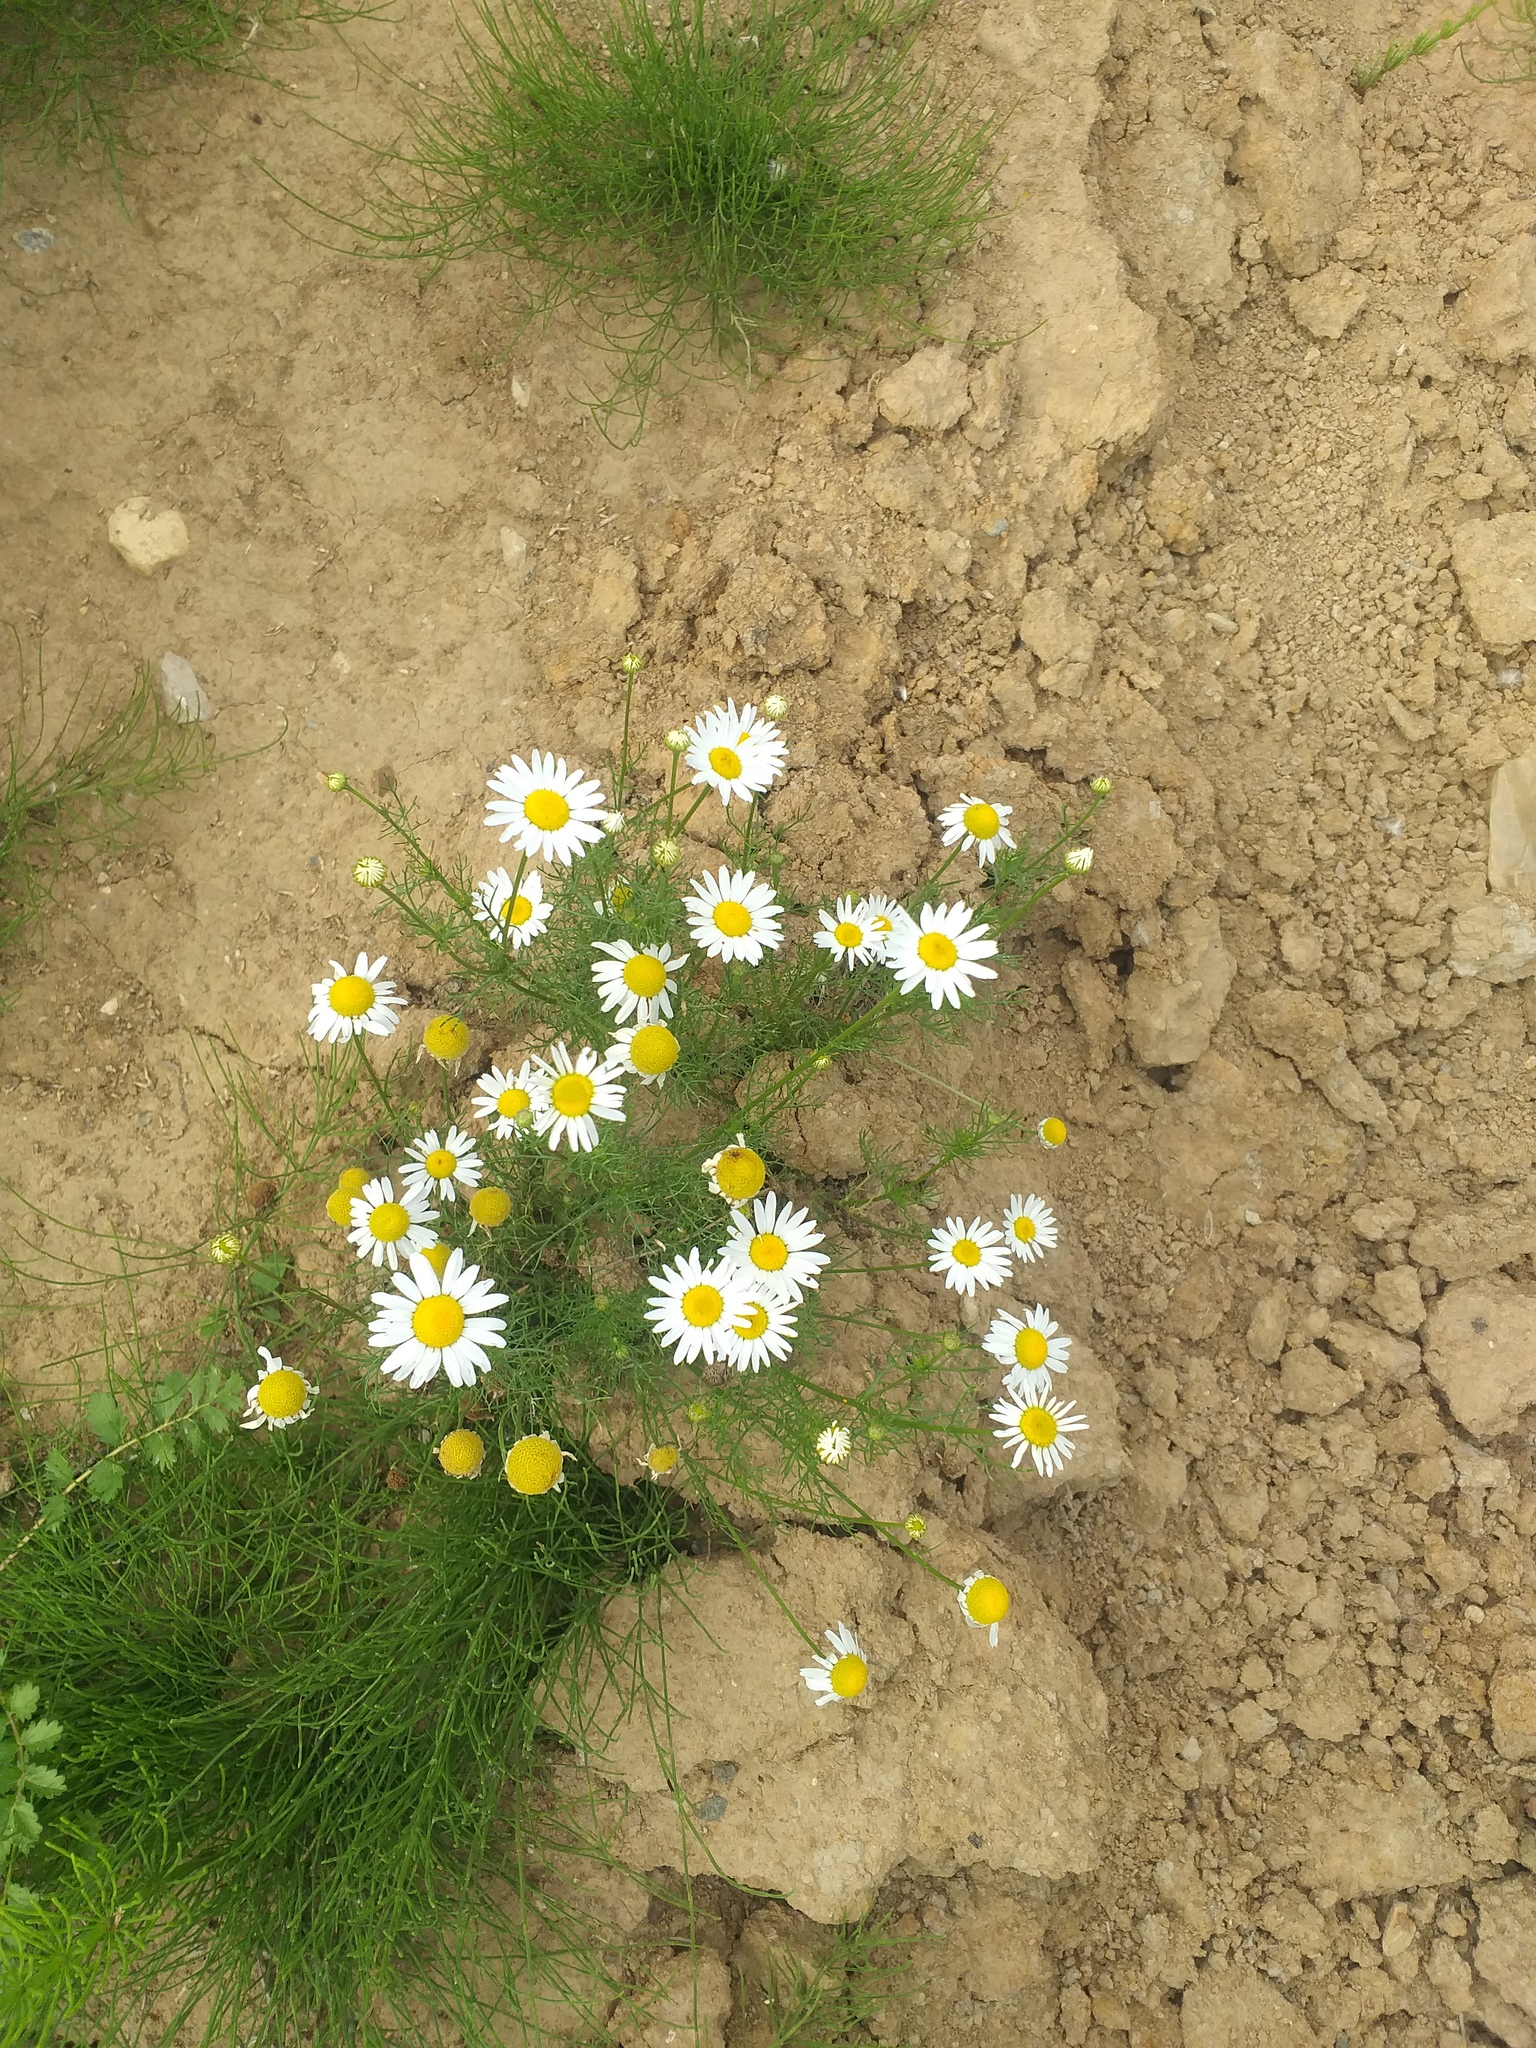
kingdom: Plantae
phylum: Tracheophyta
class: Magnoliopsida
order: Asterales
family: Asteraceae
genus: Tripleurospermum
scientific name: Tripleurospermum inodorum
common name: Scentless mayweed
